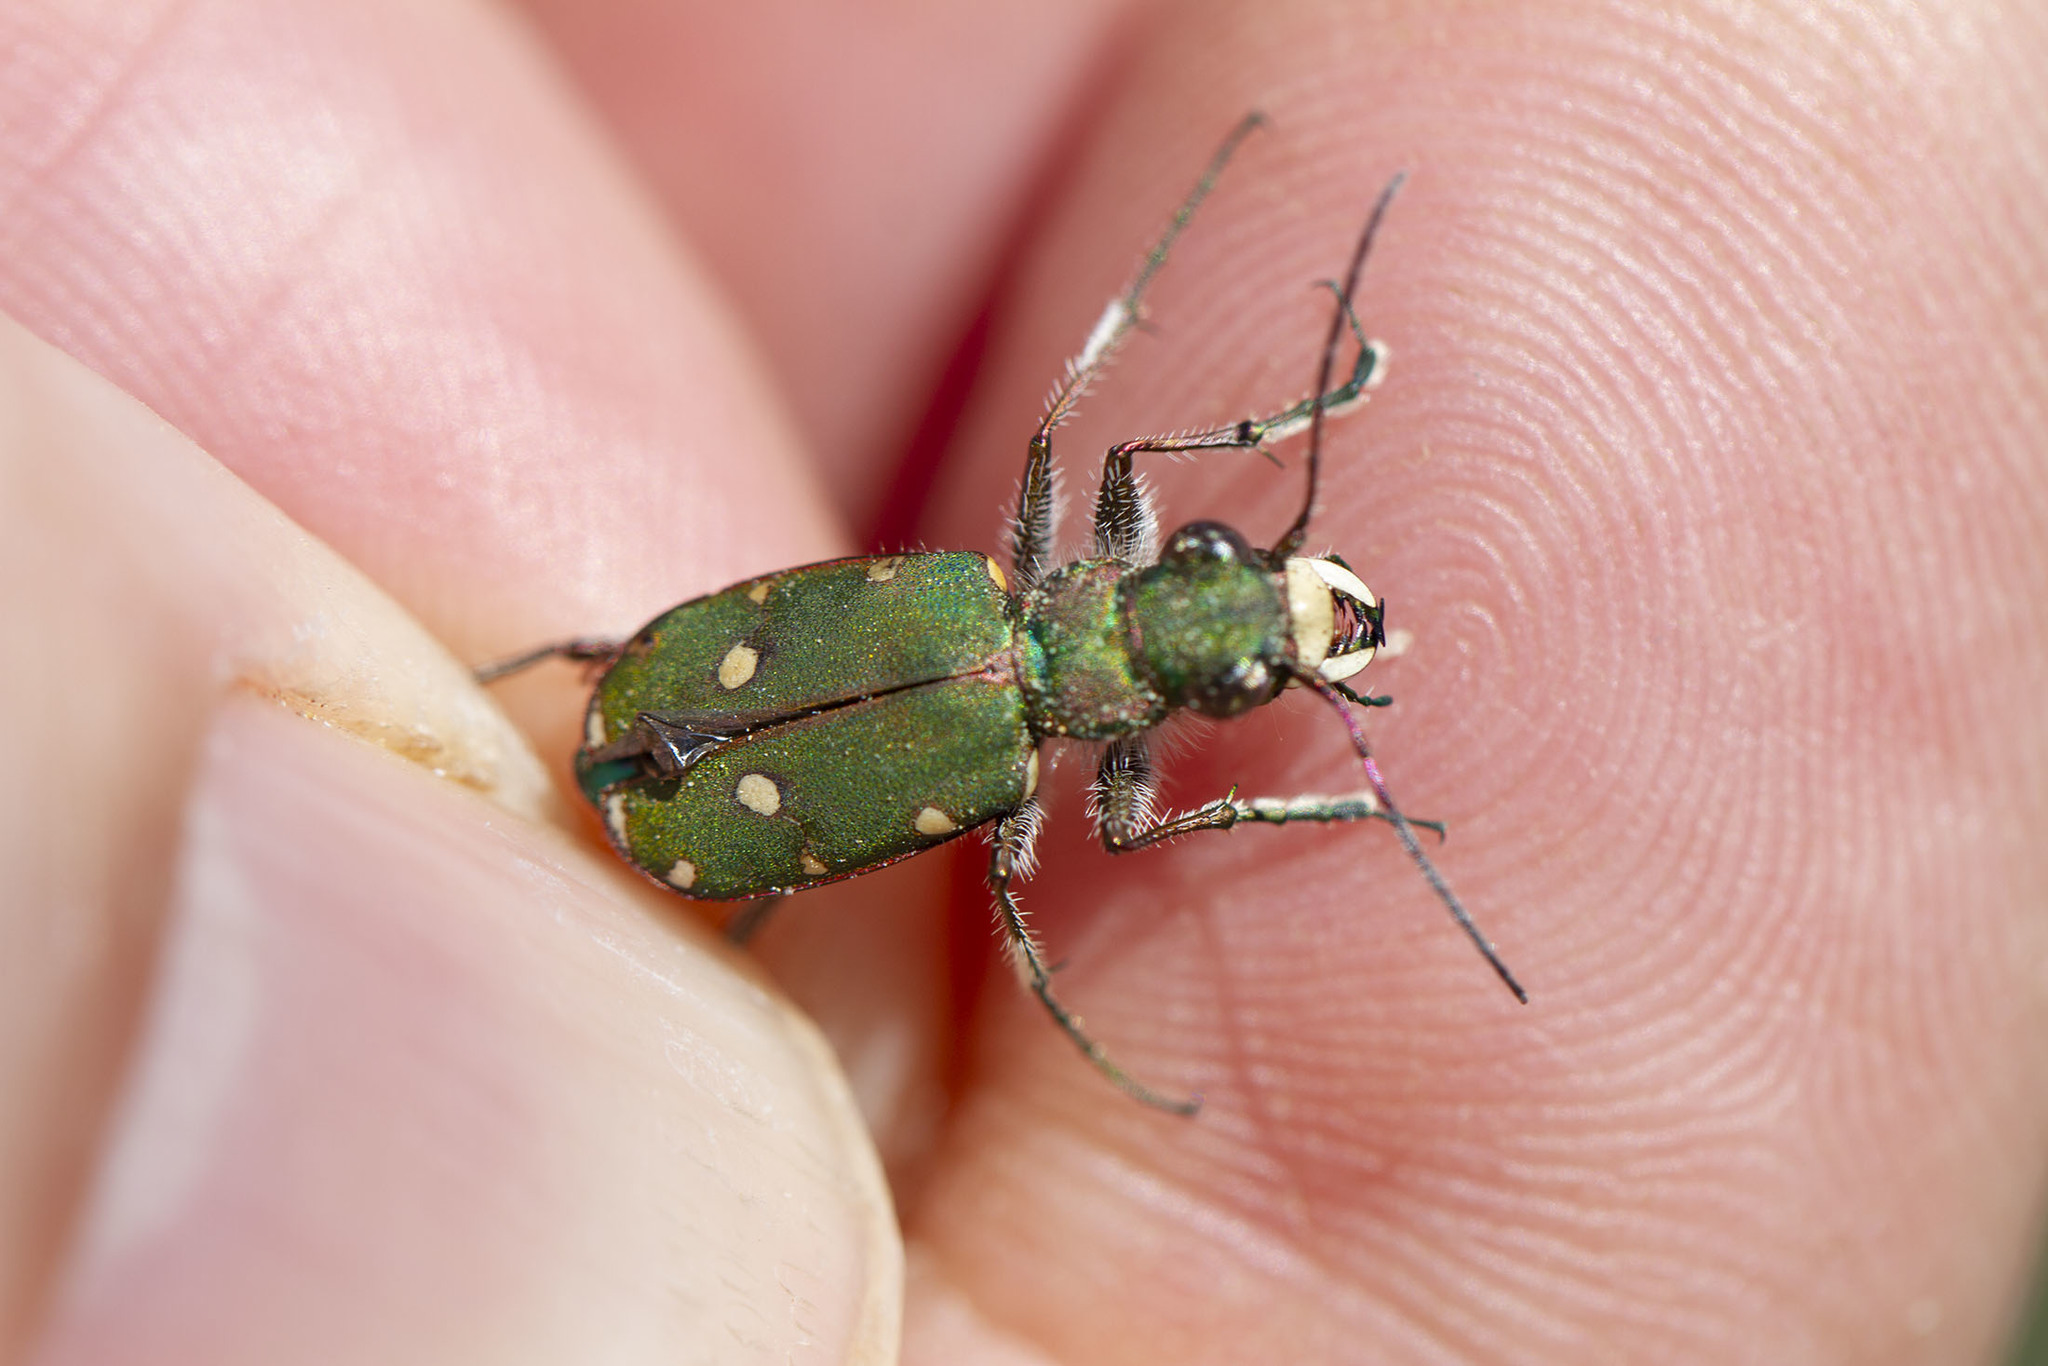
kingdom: Animalia
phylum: Arthropoda
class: Insecta
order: Coleoptera
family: Carabidae
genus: Cicindela
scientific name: Cicindela campestris
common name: Common tiger beetle
